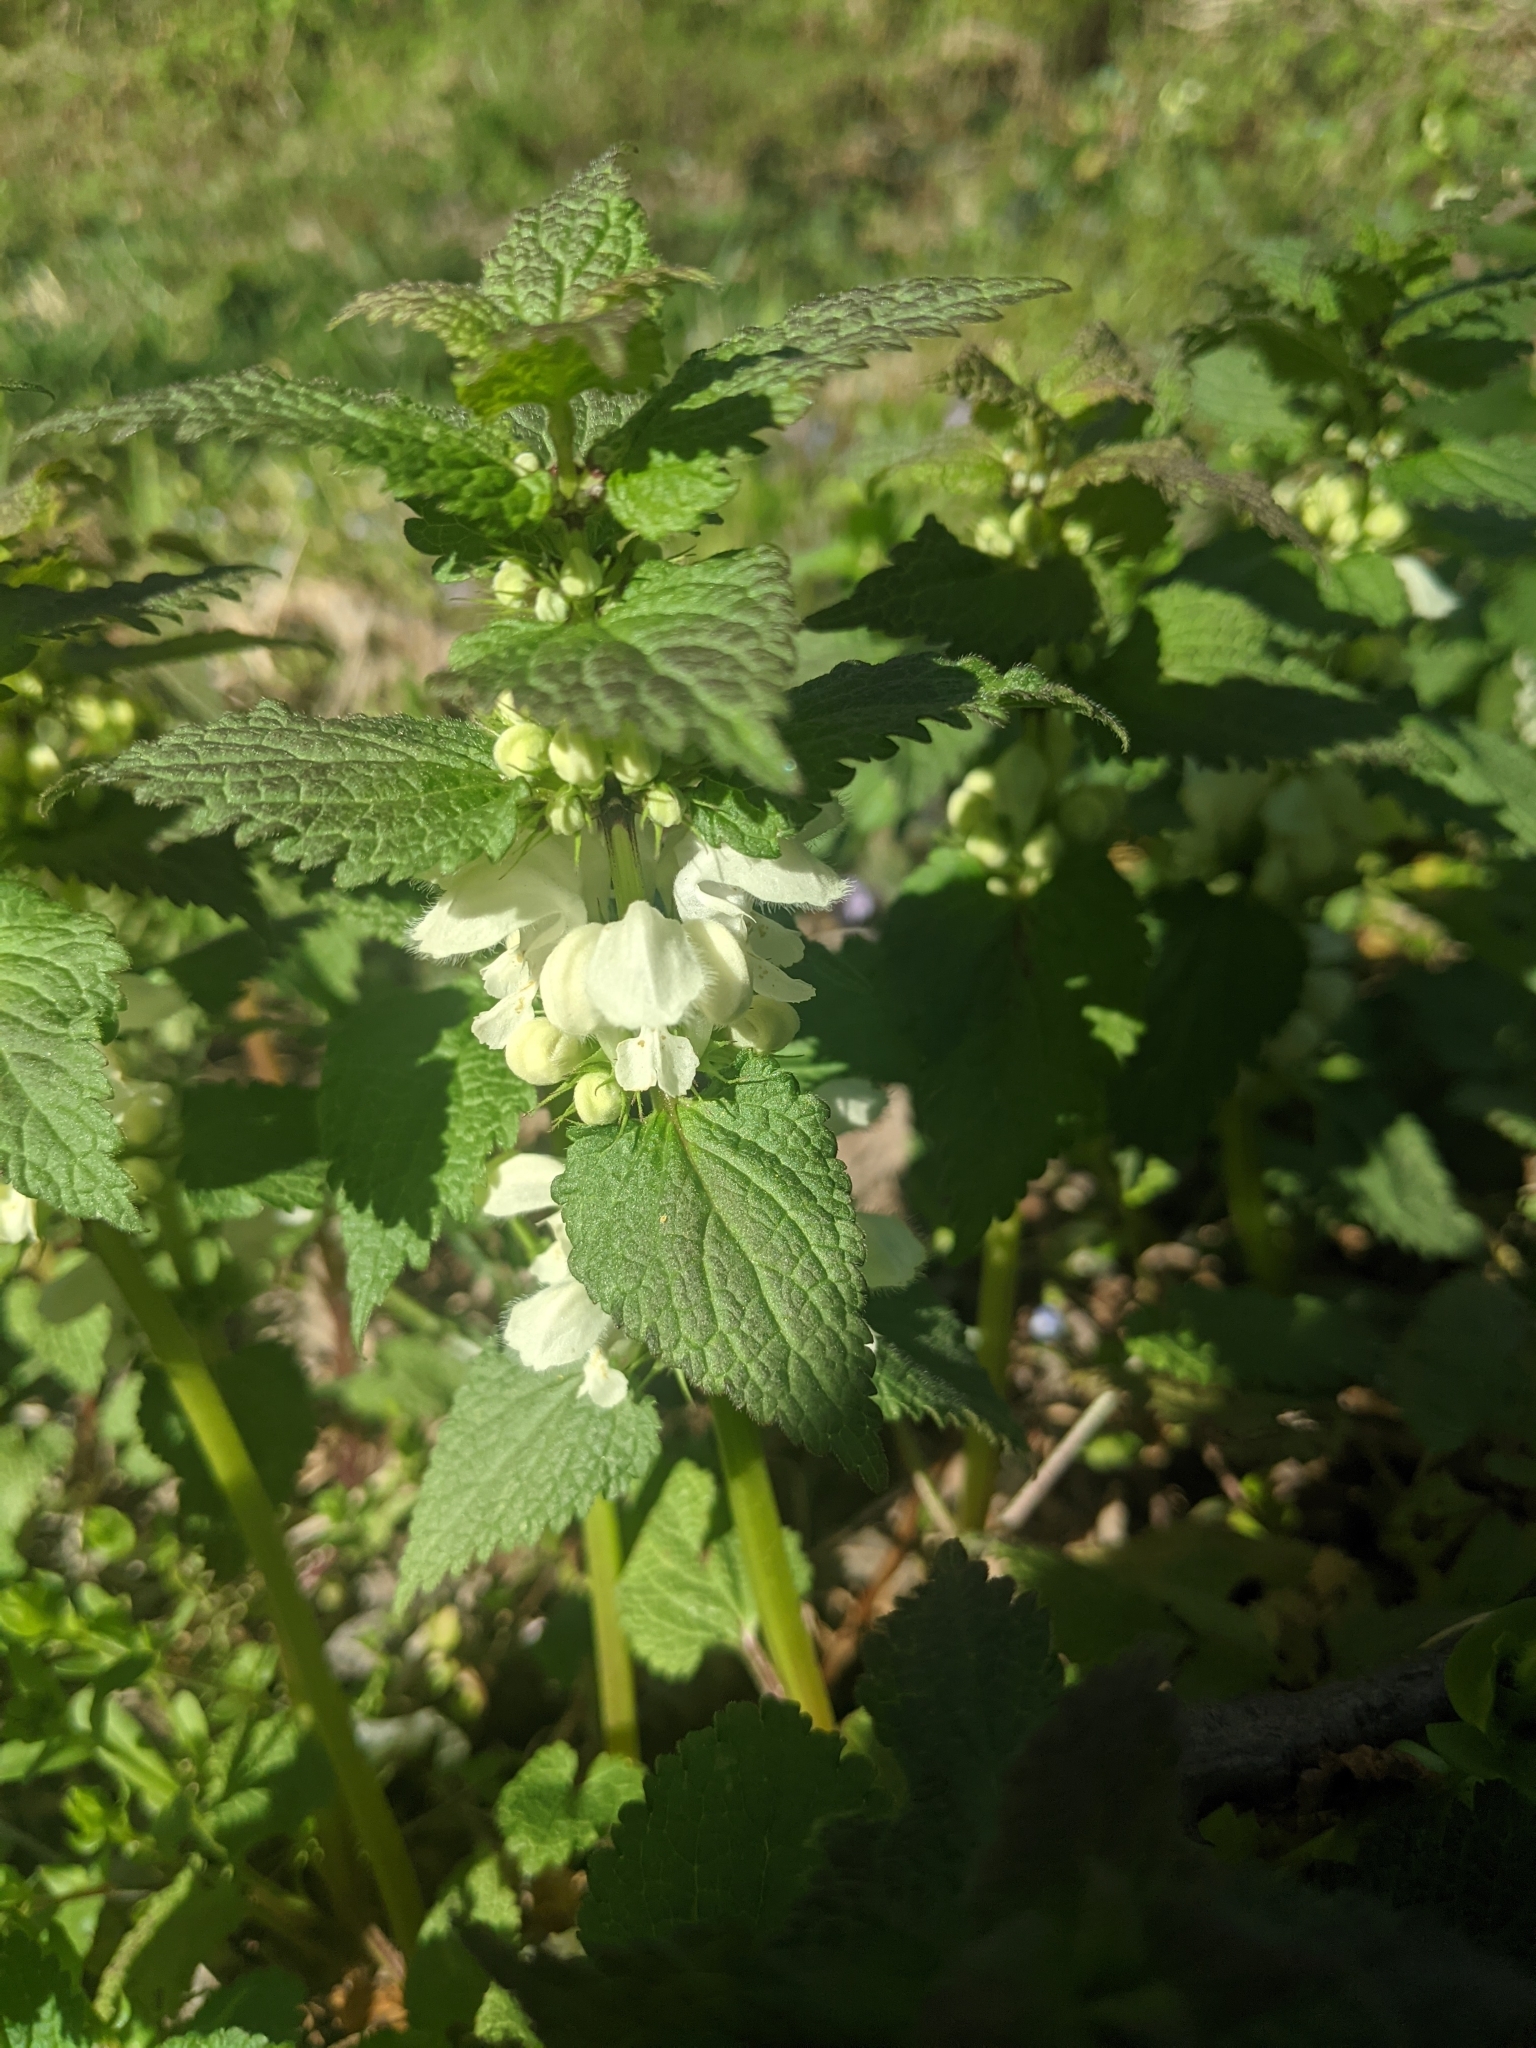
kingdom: Plantae
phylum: Tracheophyta
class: Magnoliopsida
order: Lamiales
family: Lamiaceae
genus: Lamium
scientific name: Lamium album
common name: White dead-nettle
